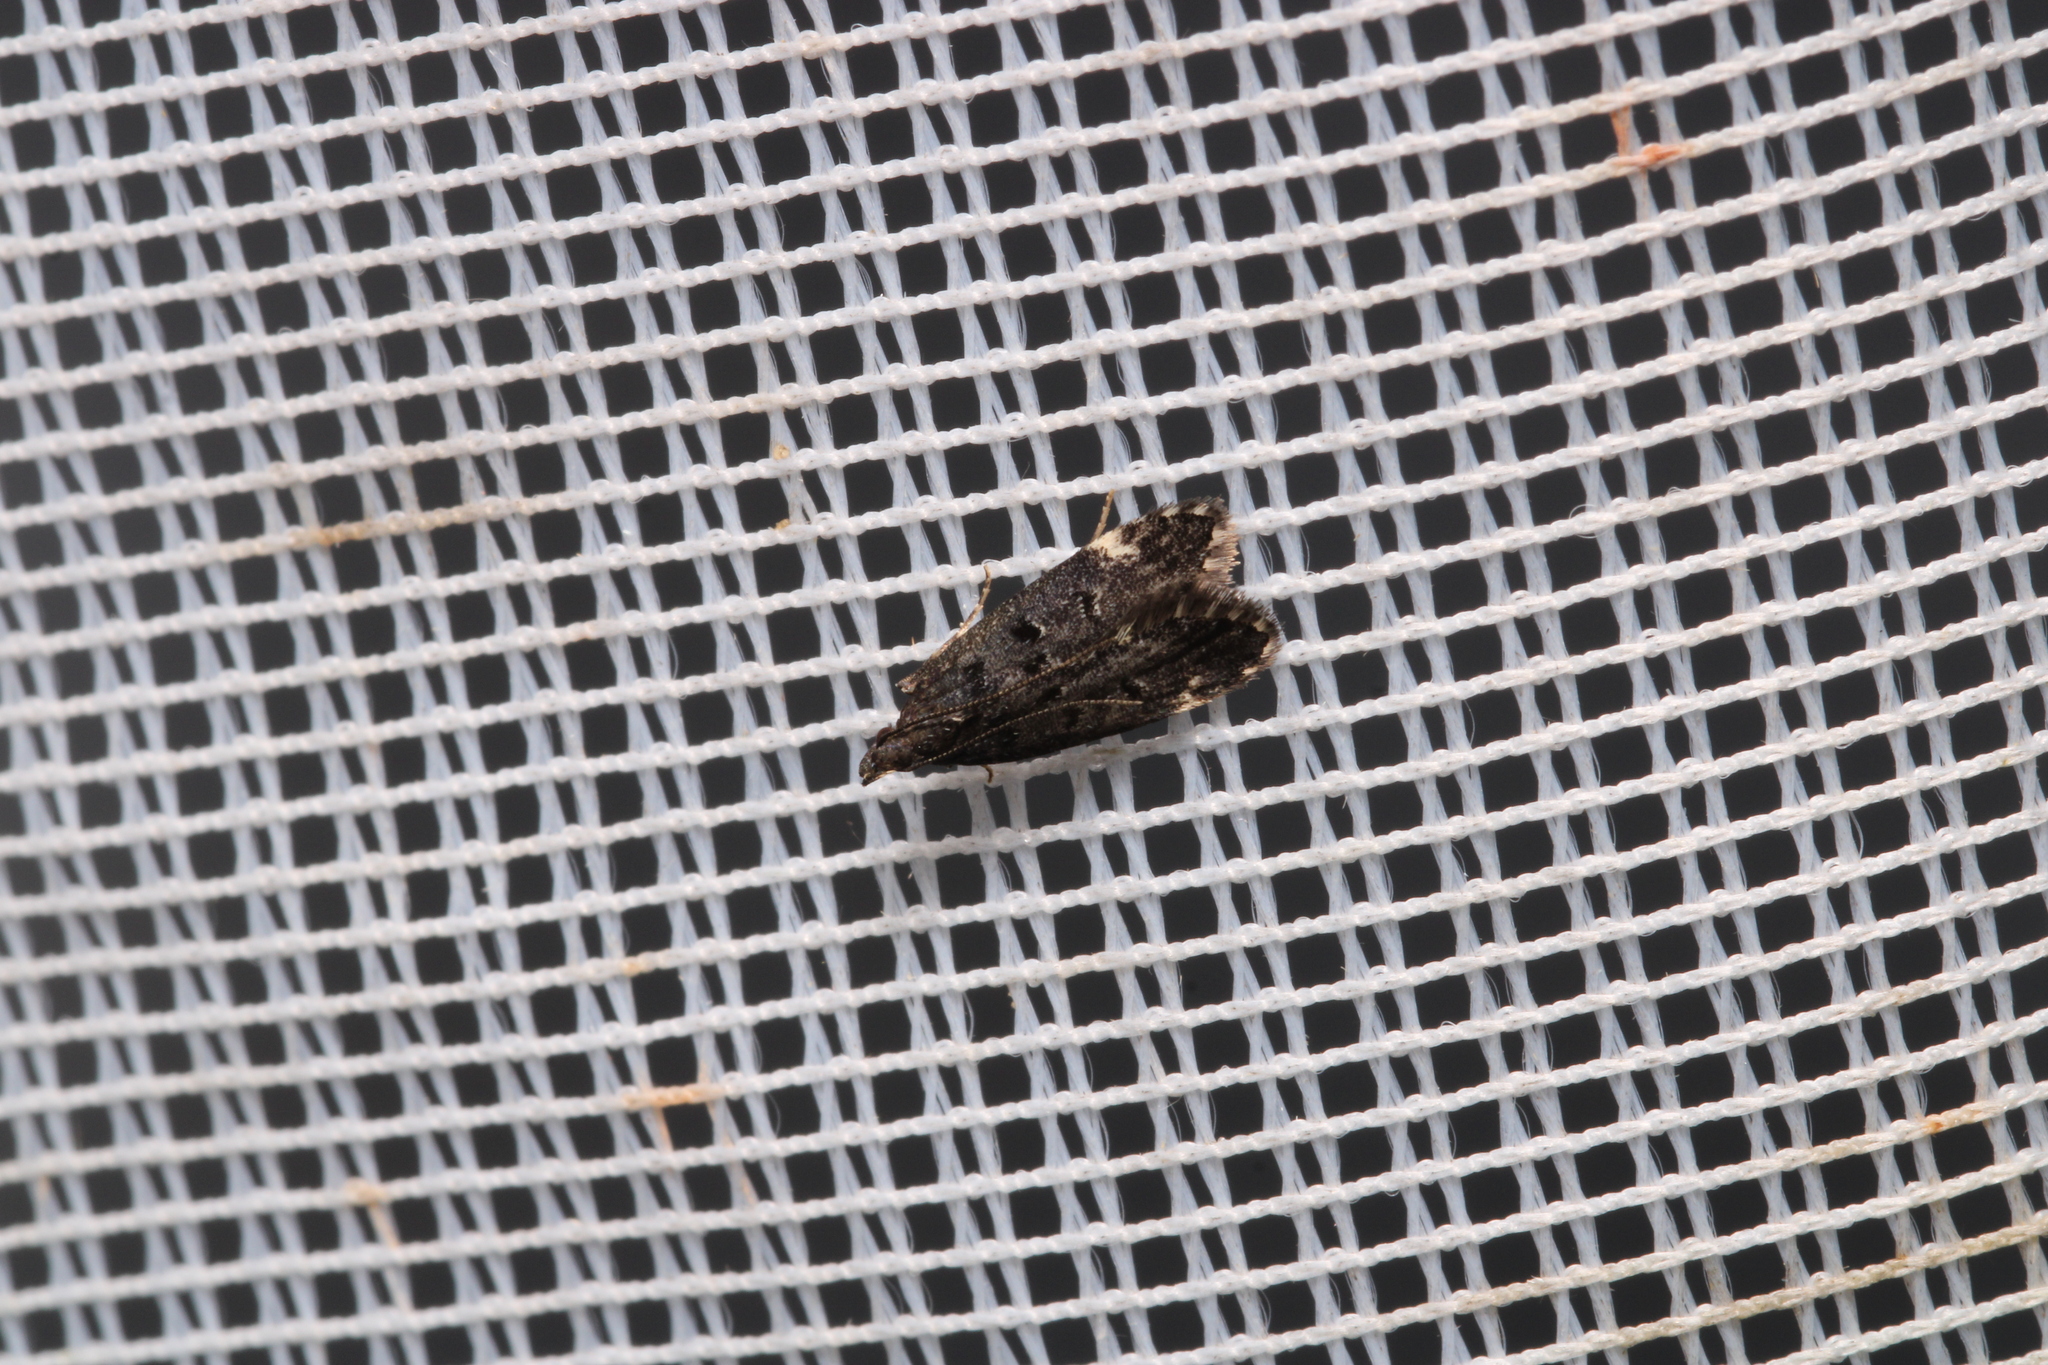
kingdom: Animalia
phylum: Arthropoda
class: Insecta
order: Lepidoptera
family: Gelechiidae
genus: Acanthophila
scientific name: Acanthophila alacella
